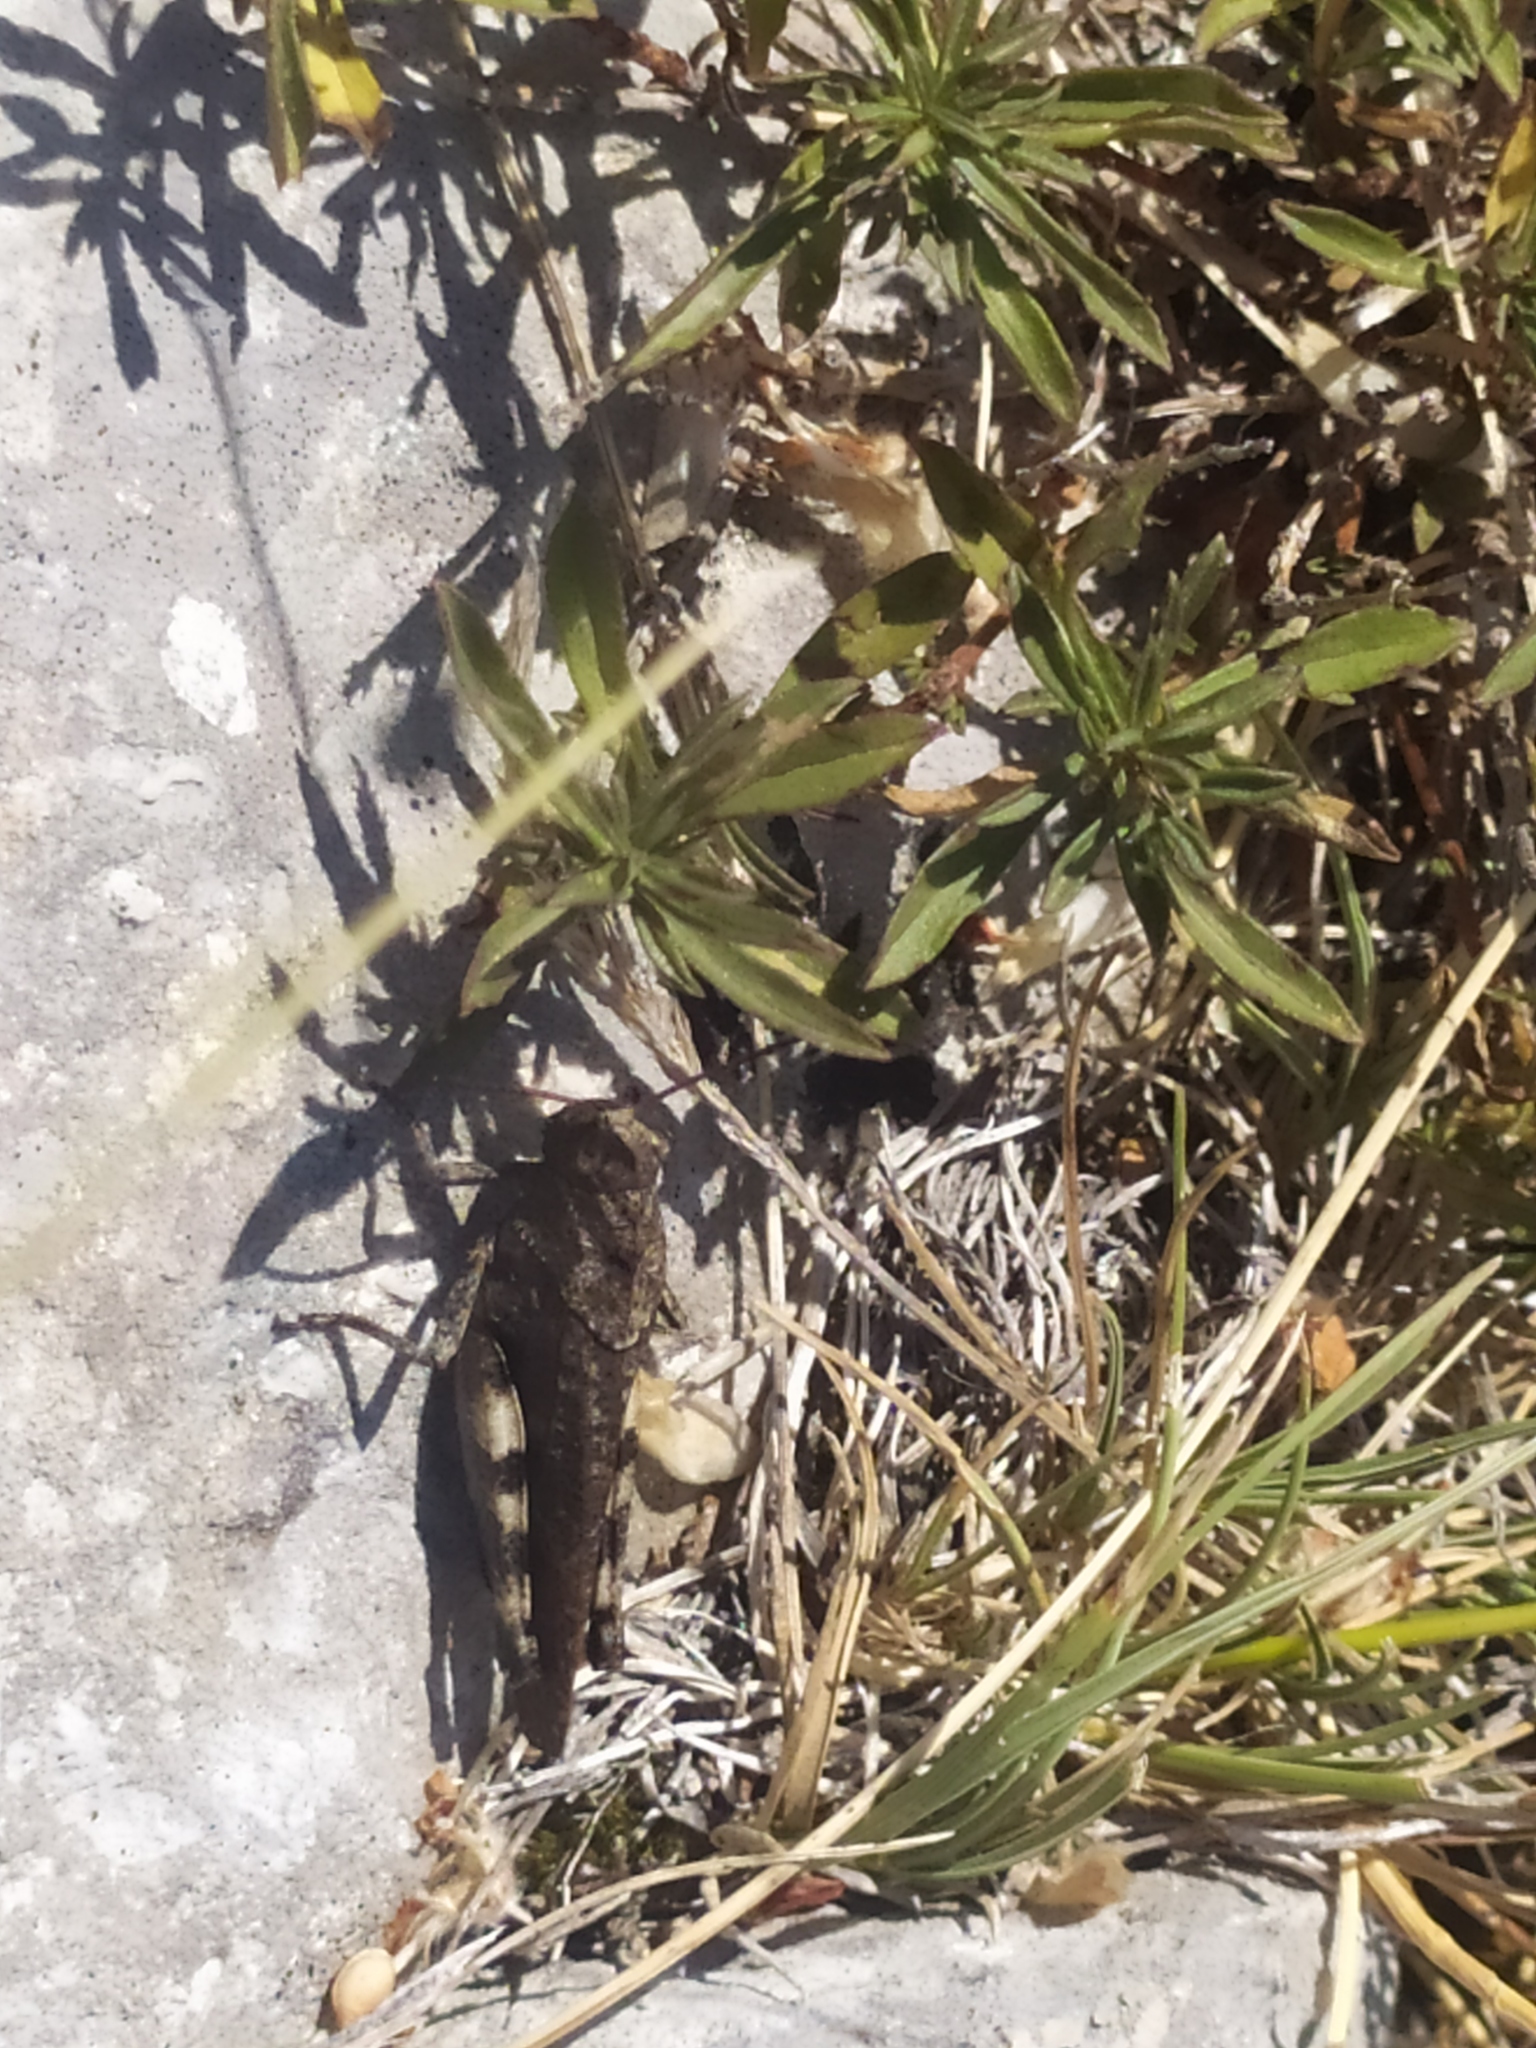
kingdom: Animalia
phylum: Arthropoda
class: Insecta
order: Orthoptera
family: Acrididae
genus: Psophus
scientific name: Psophus stridulus
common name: Rattle grasshopper
